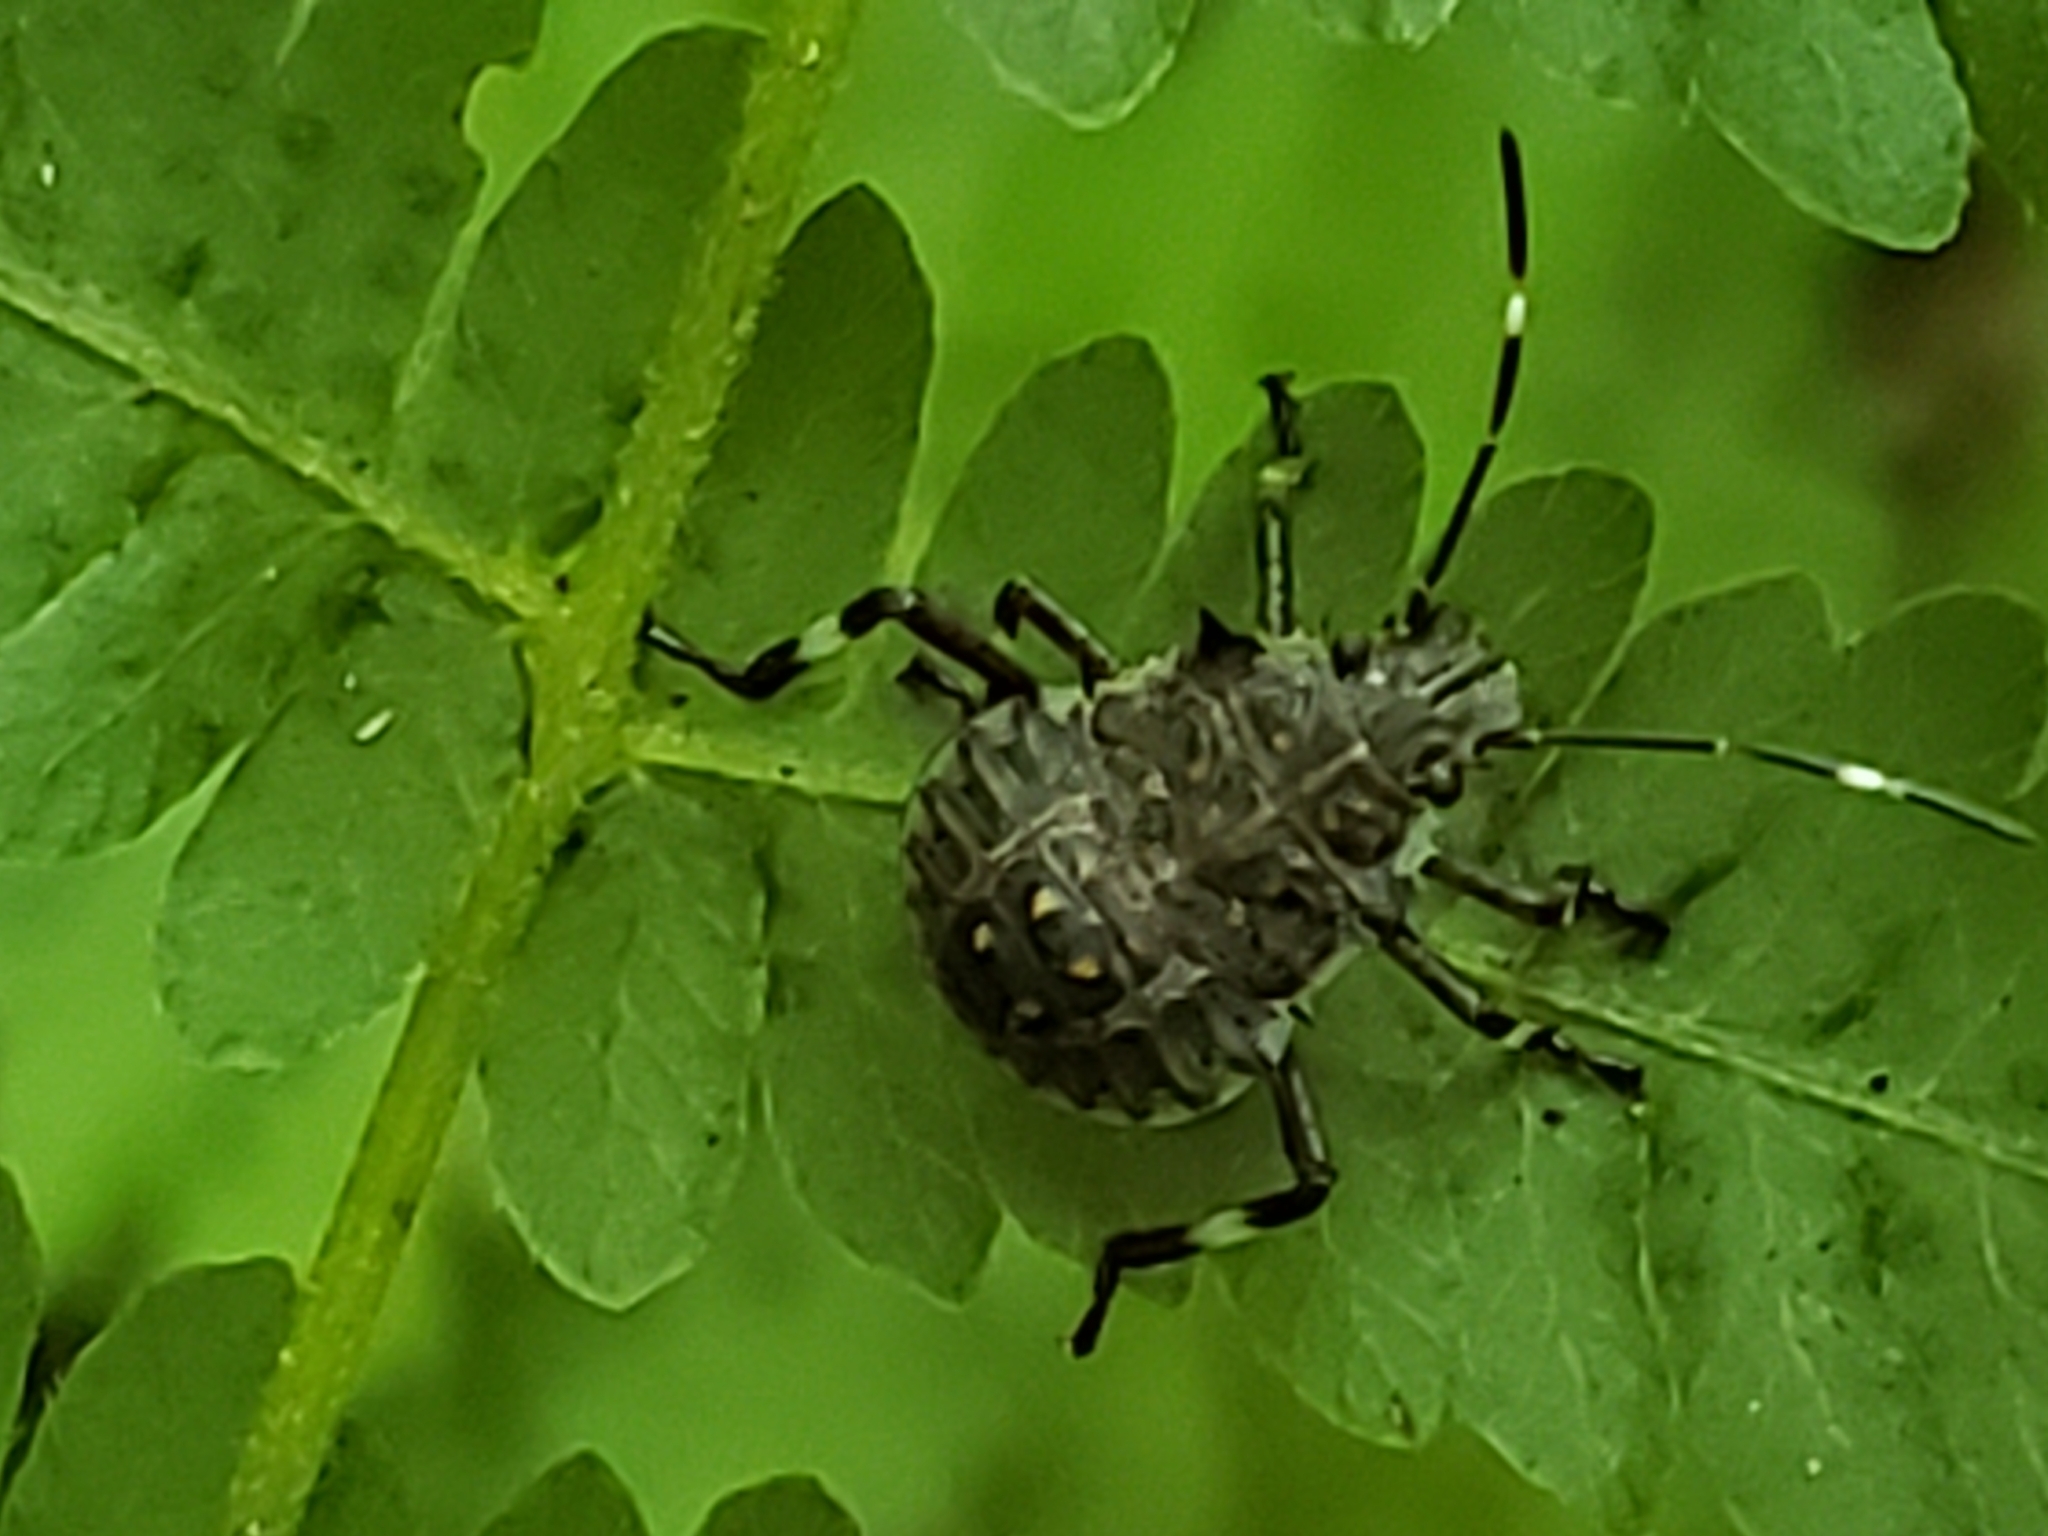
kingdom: Animalia
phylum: Arthropoda
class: Insecta
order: Hemiptera
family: Pentatomidae
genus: Halyomorpha
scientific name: Halyomorpha halys
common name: Brown marmorated stink bug
